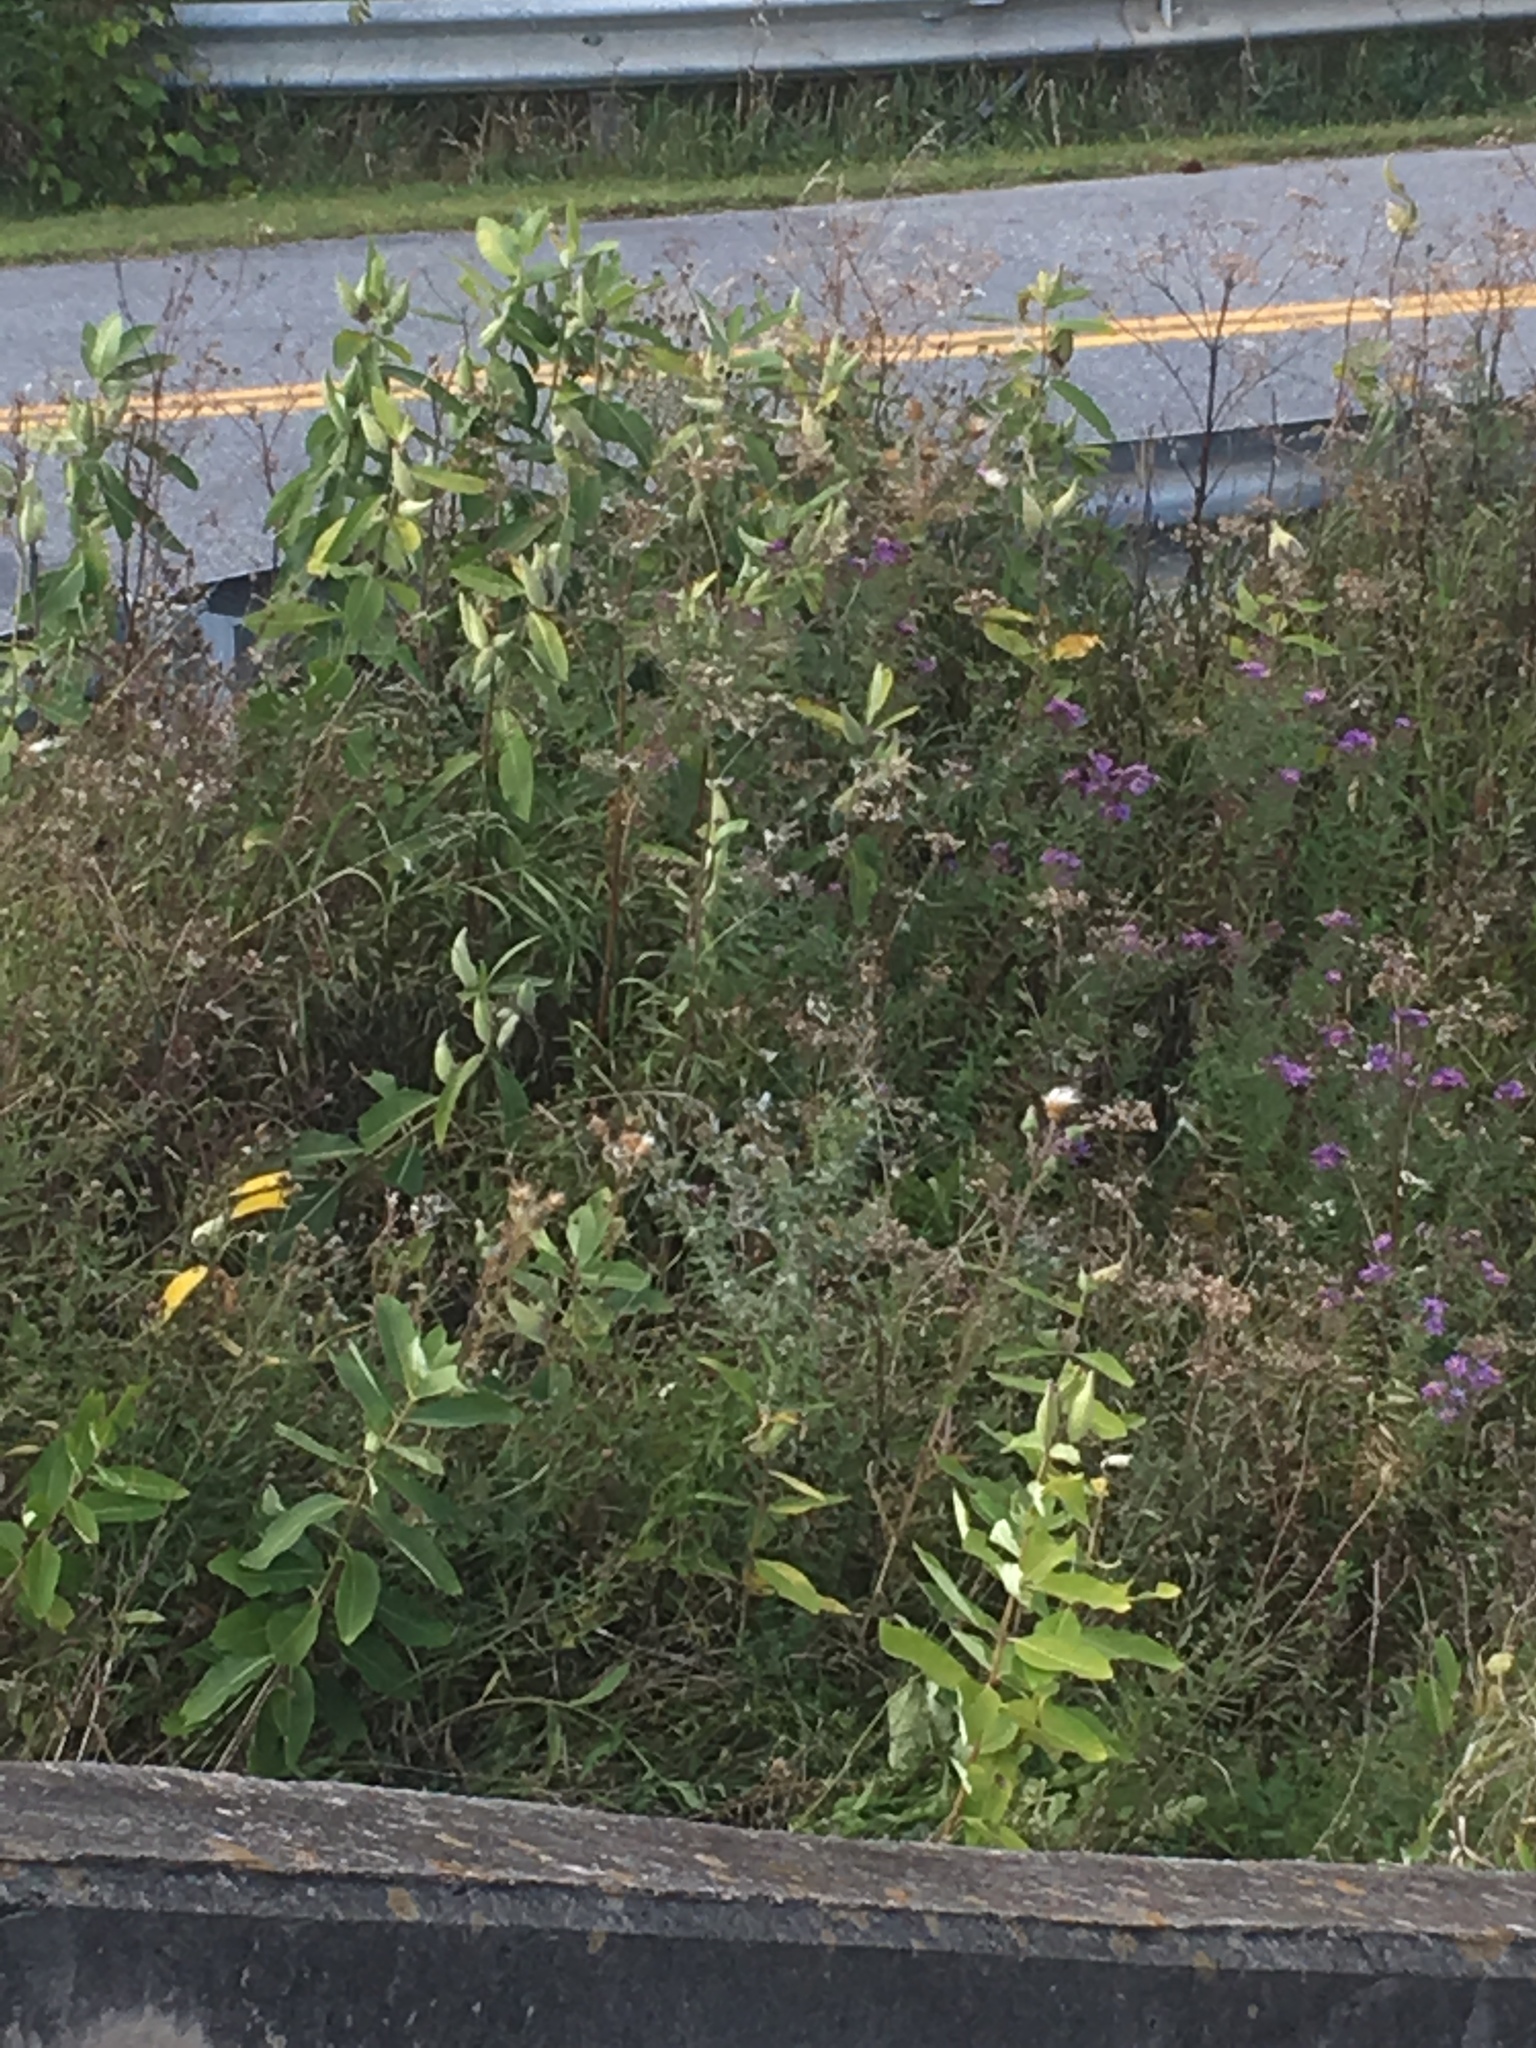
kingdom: Plantae
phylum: Tracheophyta
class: Magnoliopsida
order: Gentianales
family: Apocynaceae
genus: Asclepias
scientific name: Asclepias syriaca
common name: Common milkweed
